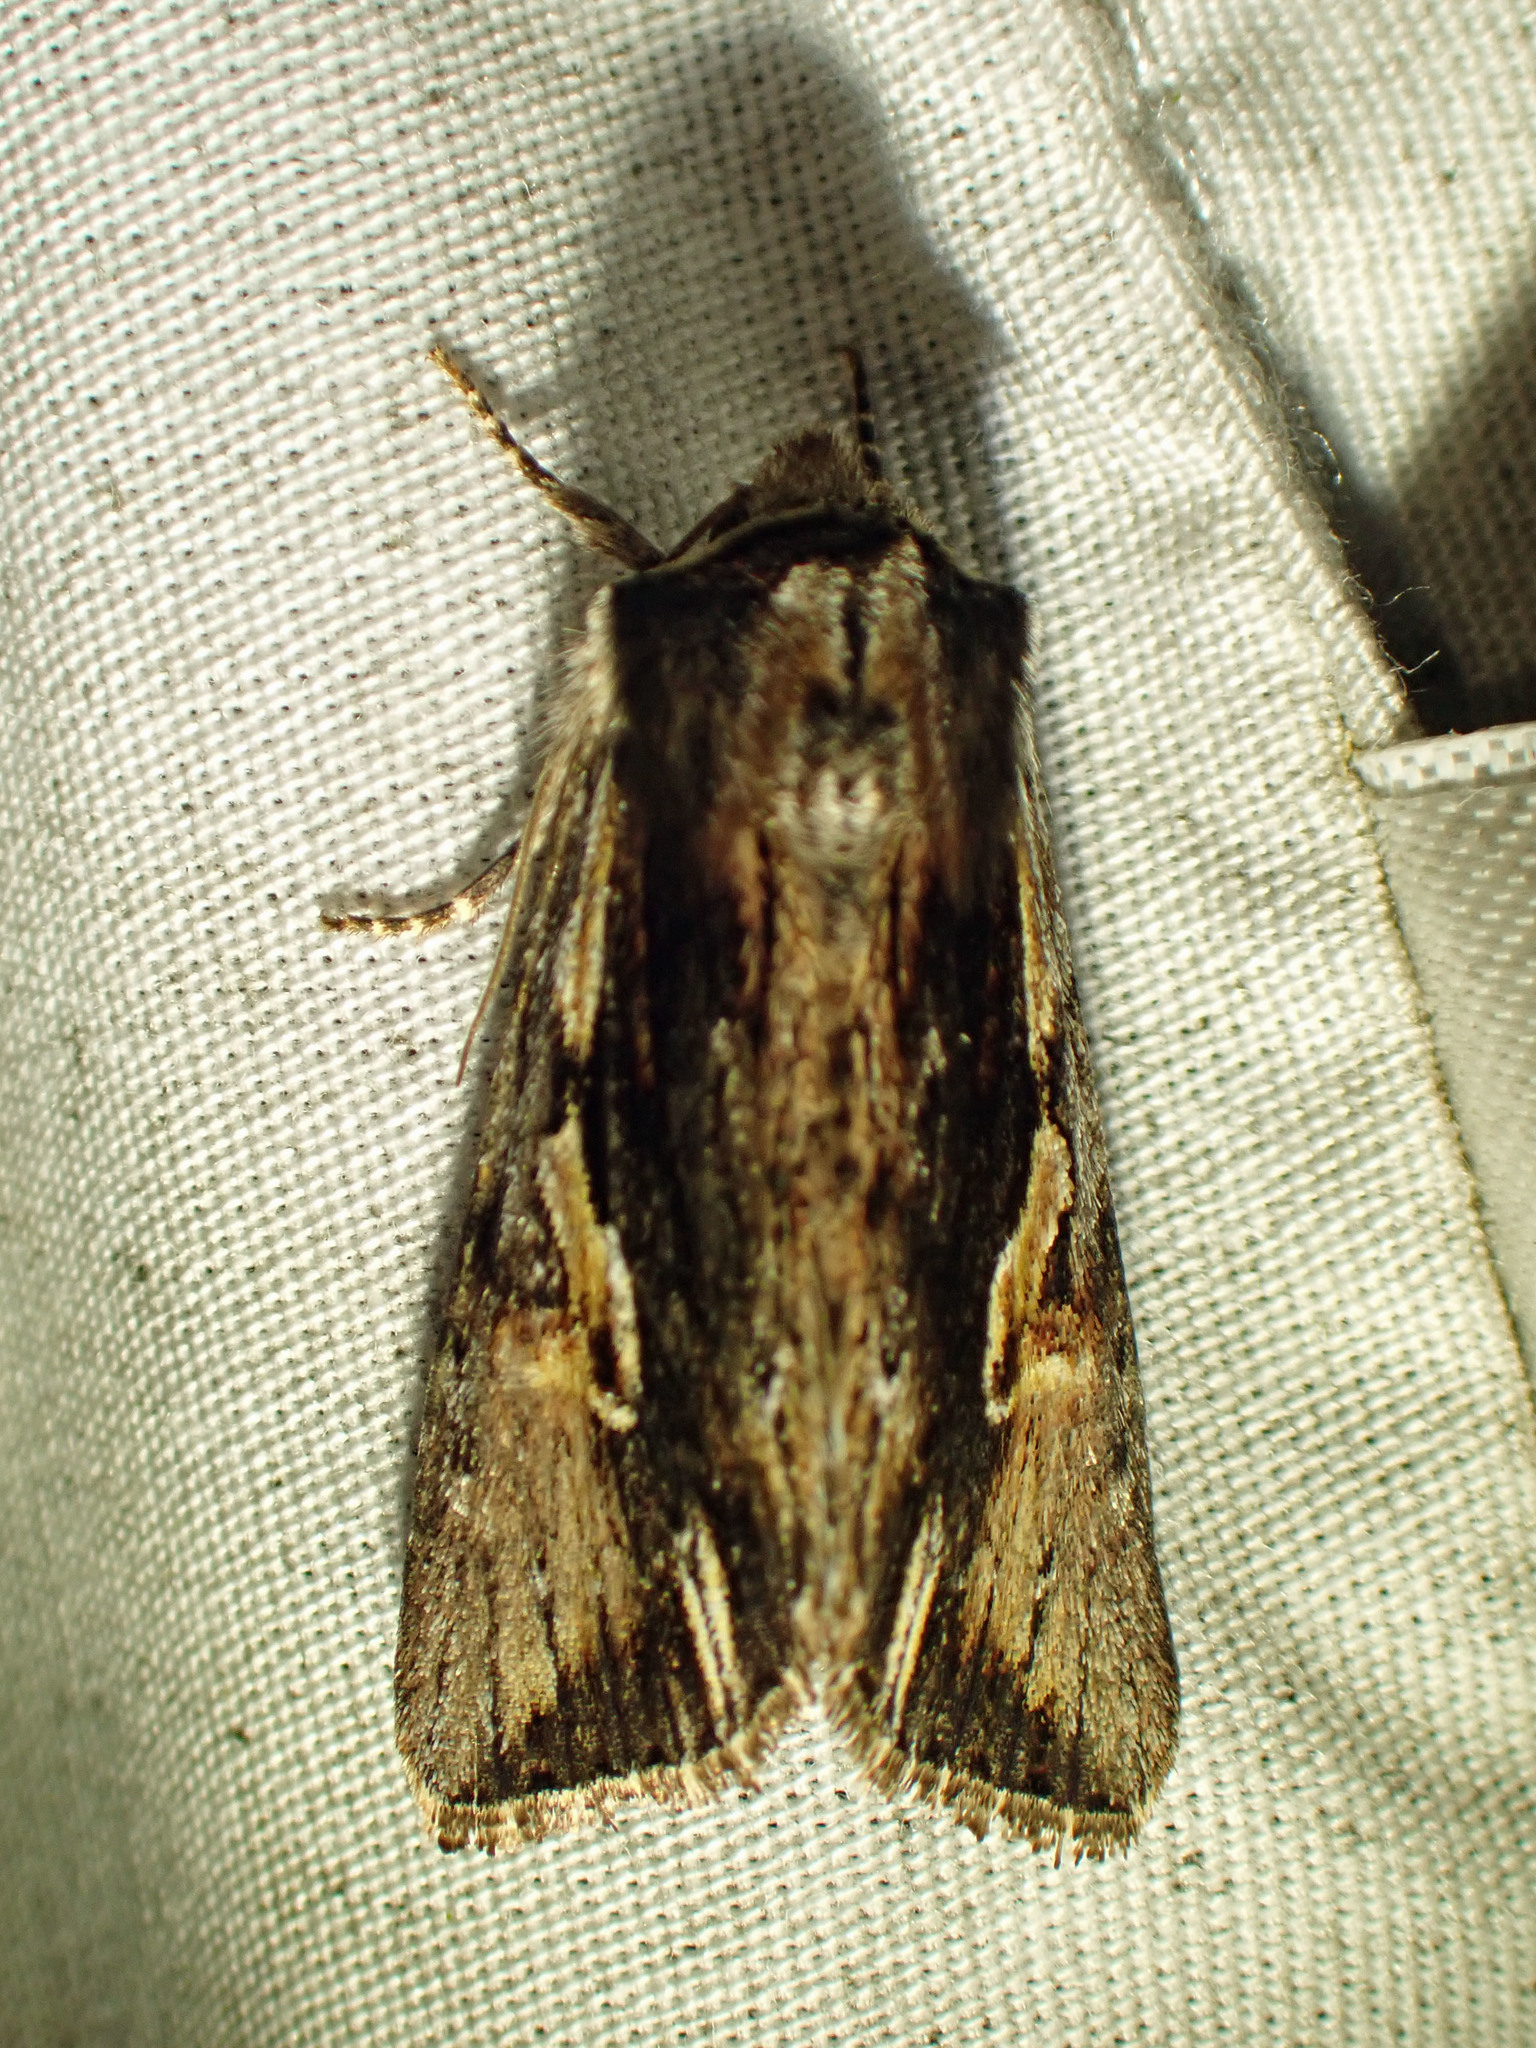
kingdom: Animalia
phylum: Arthropoda
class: Insecta
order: Lepidoptera
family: Noctuidae
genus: Achatia
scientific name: Achatia evicta
